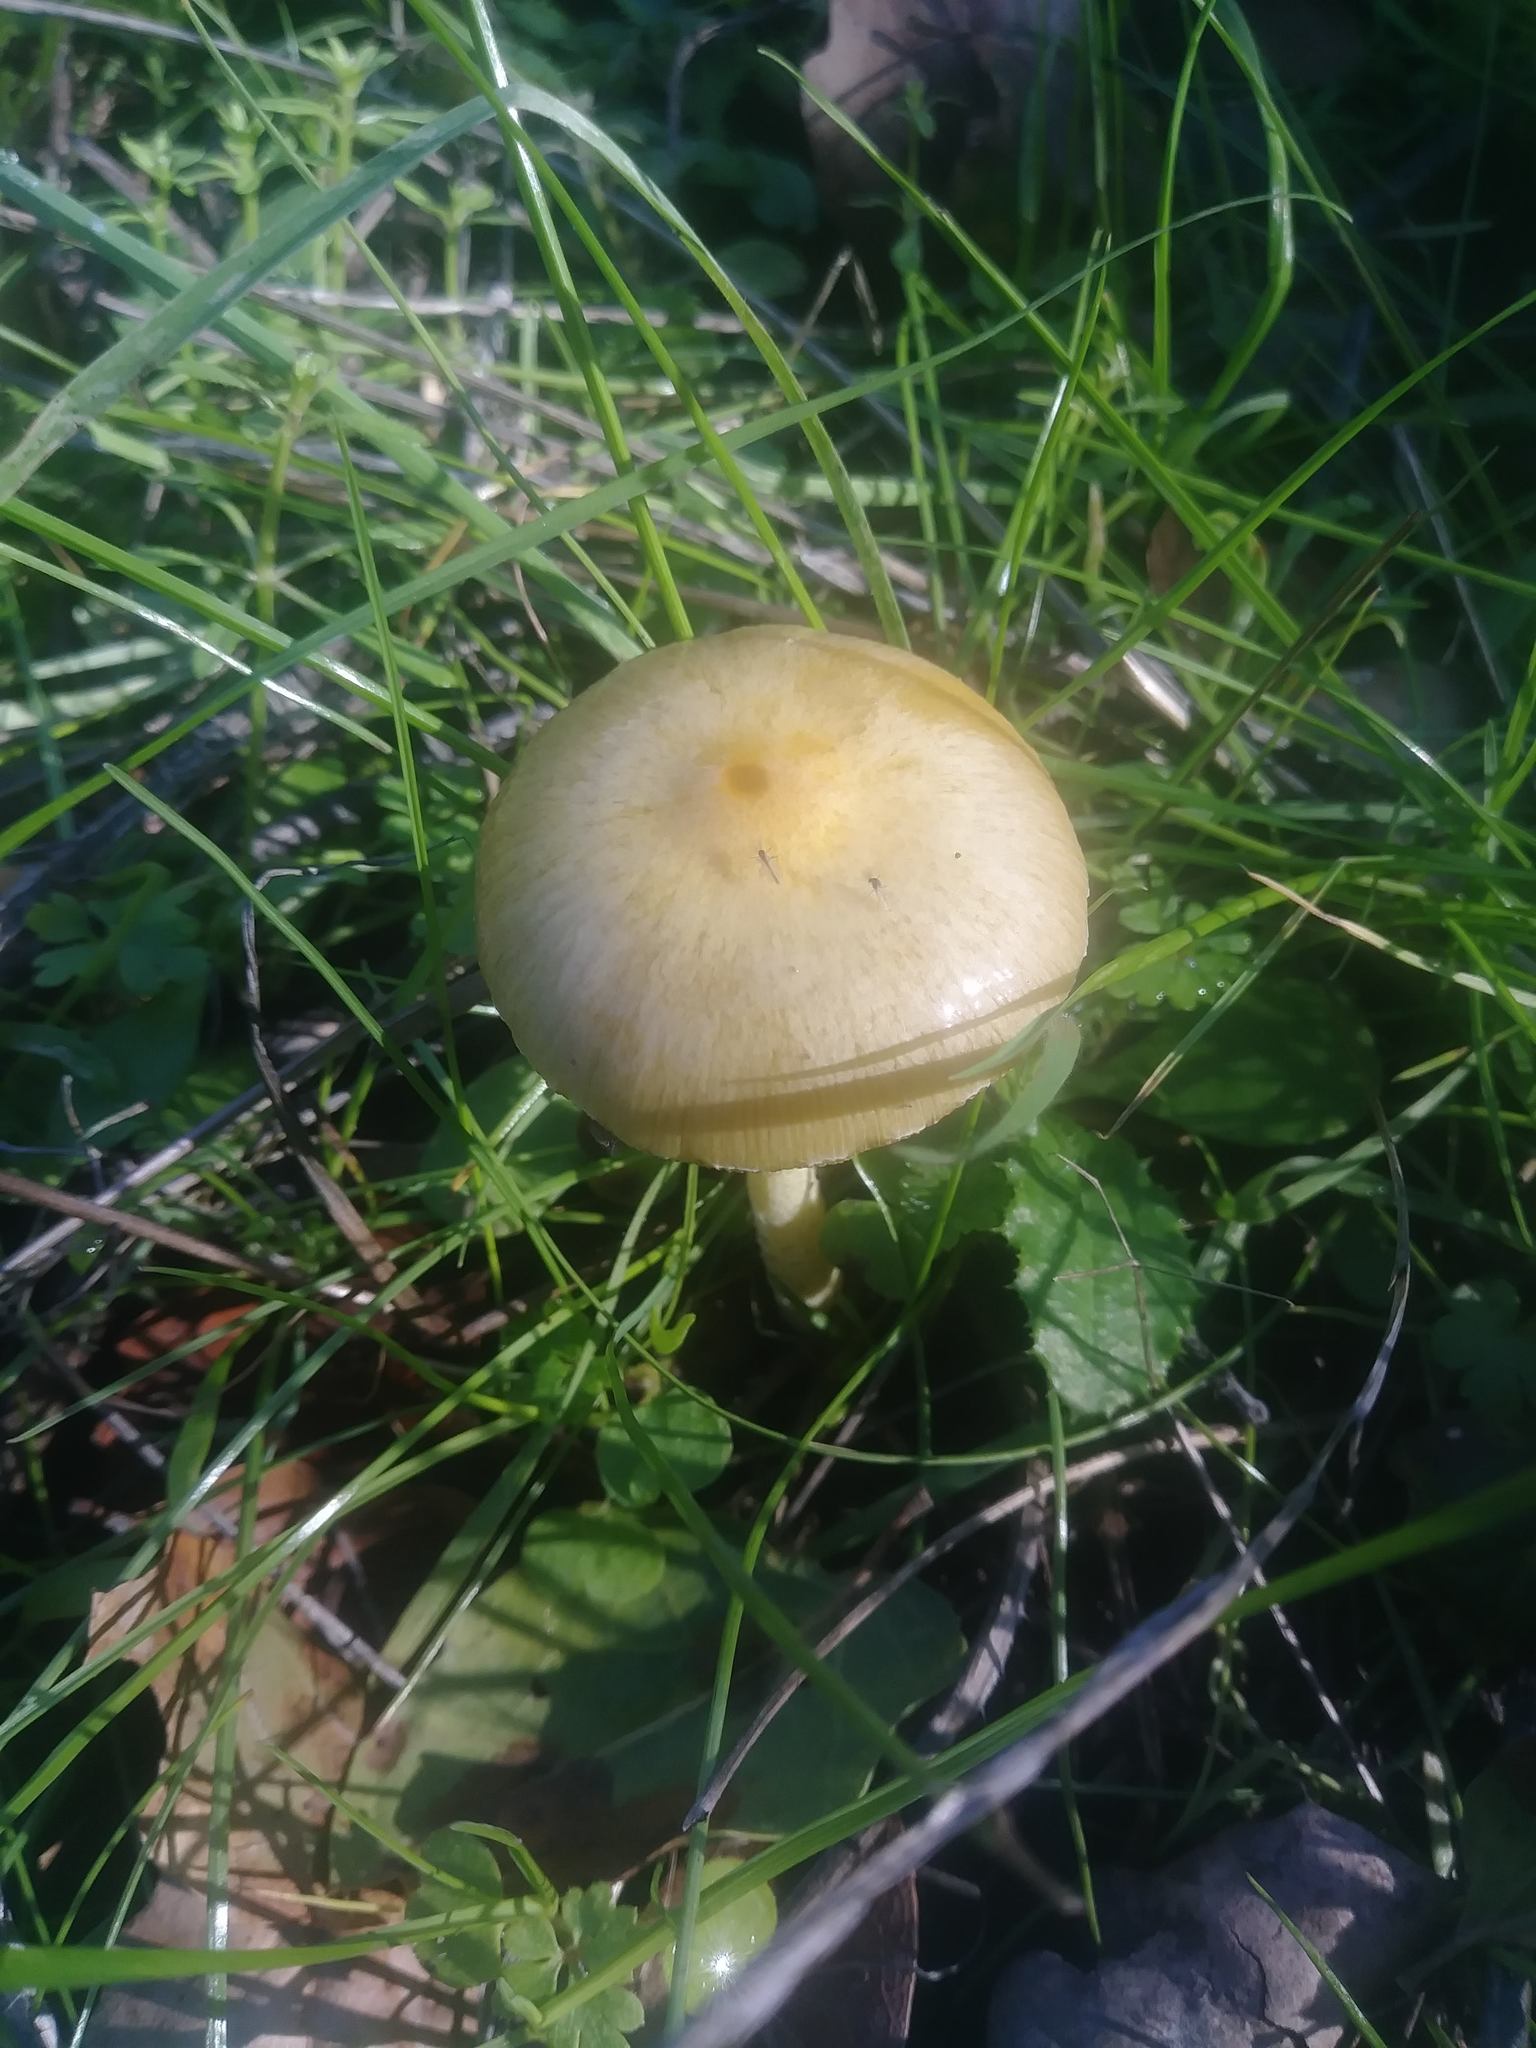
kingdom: Fungi
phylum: Basidiomycota
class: Agaricomycetes
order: Agaricales
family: Bolbitiaceae
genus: Bolbitius
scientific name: Bolbitius titubans
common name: Yellow fieldcap
